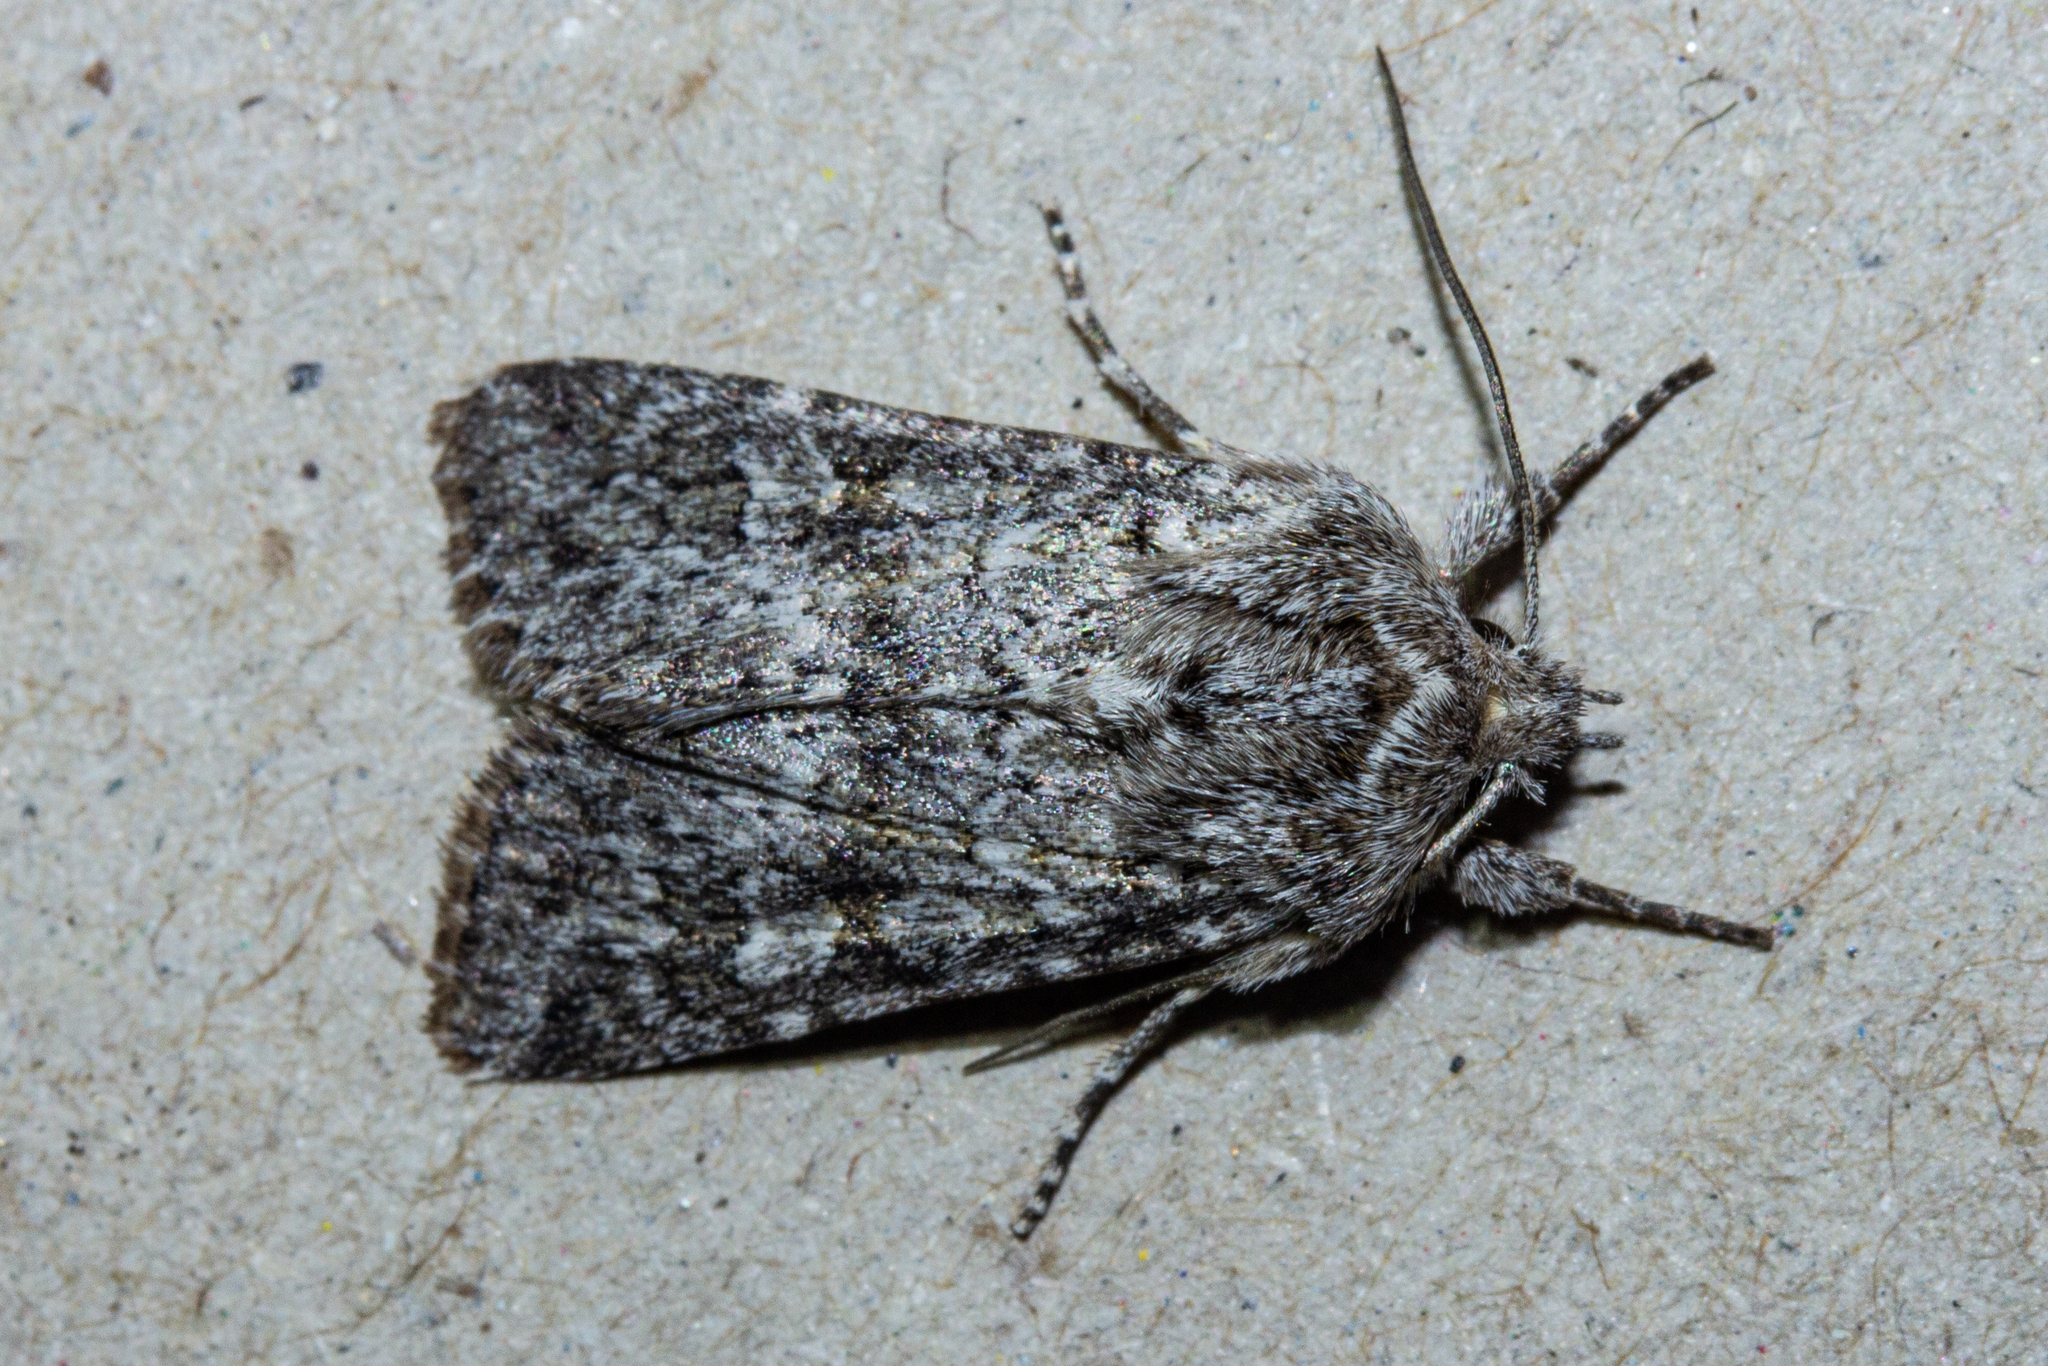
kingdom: Animalia
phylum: Arthropoda
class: Insecta
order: Lepidoptera
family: Noctuidae
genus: Physetica
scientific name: Physetica cucullina
